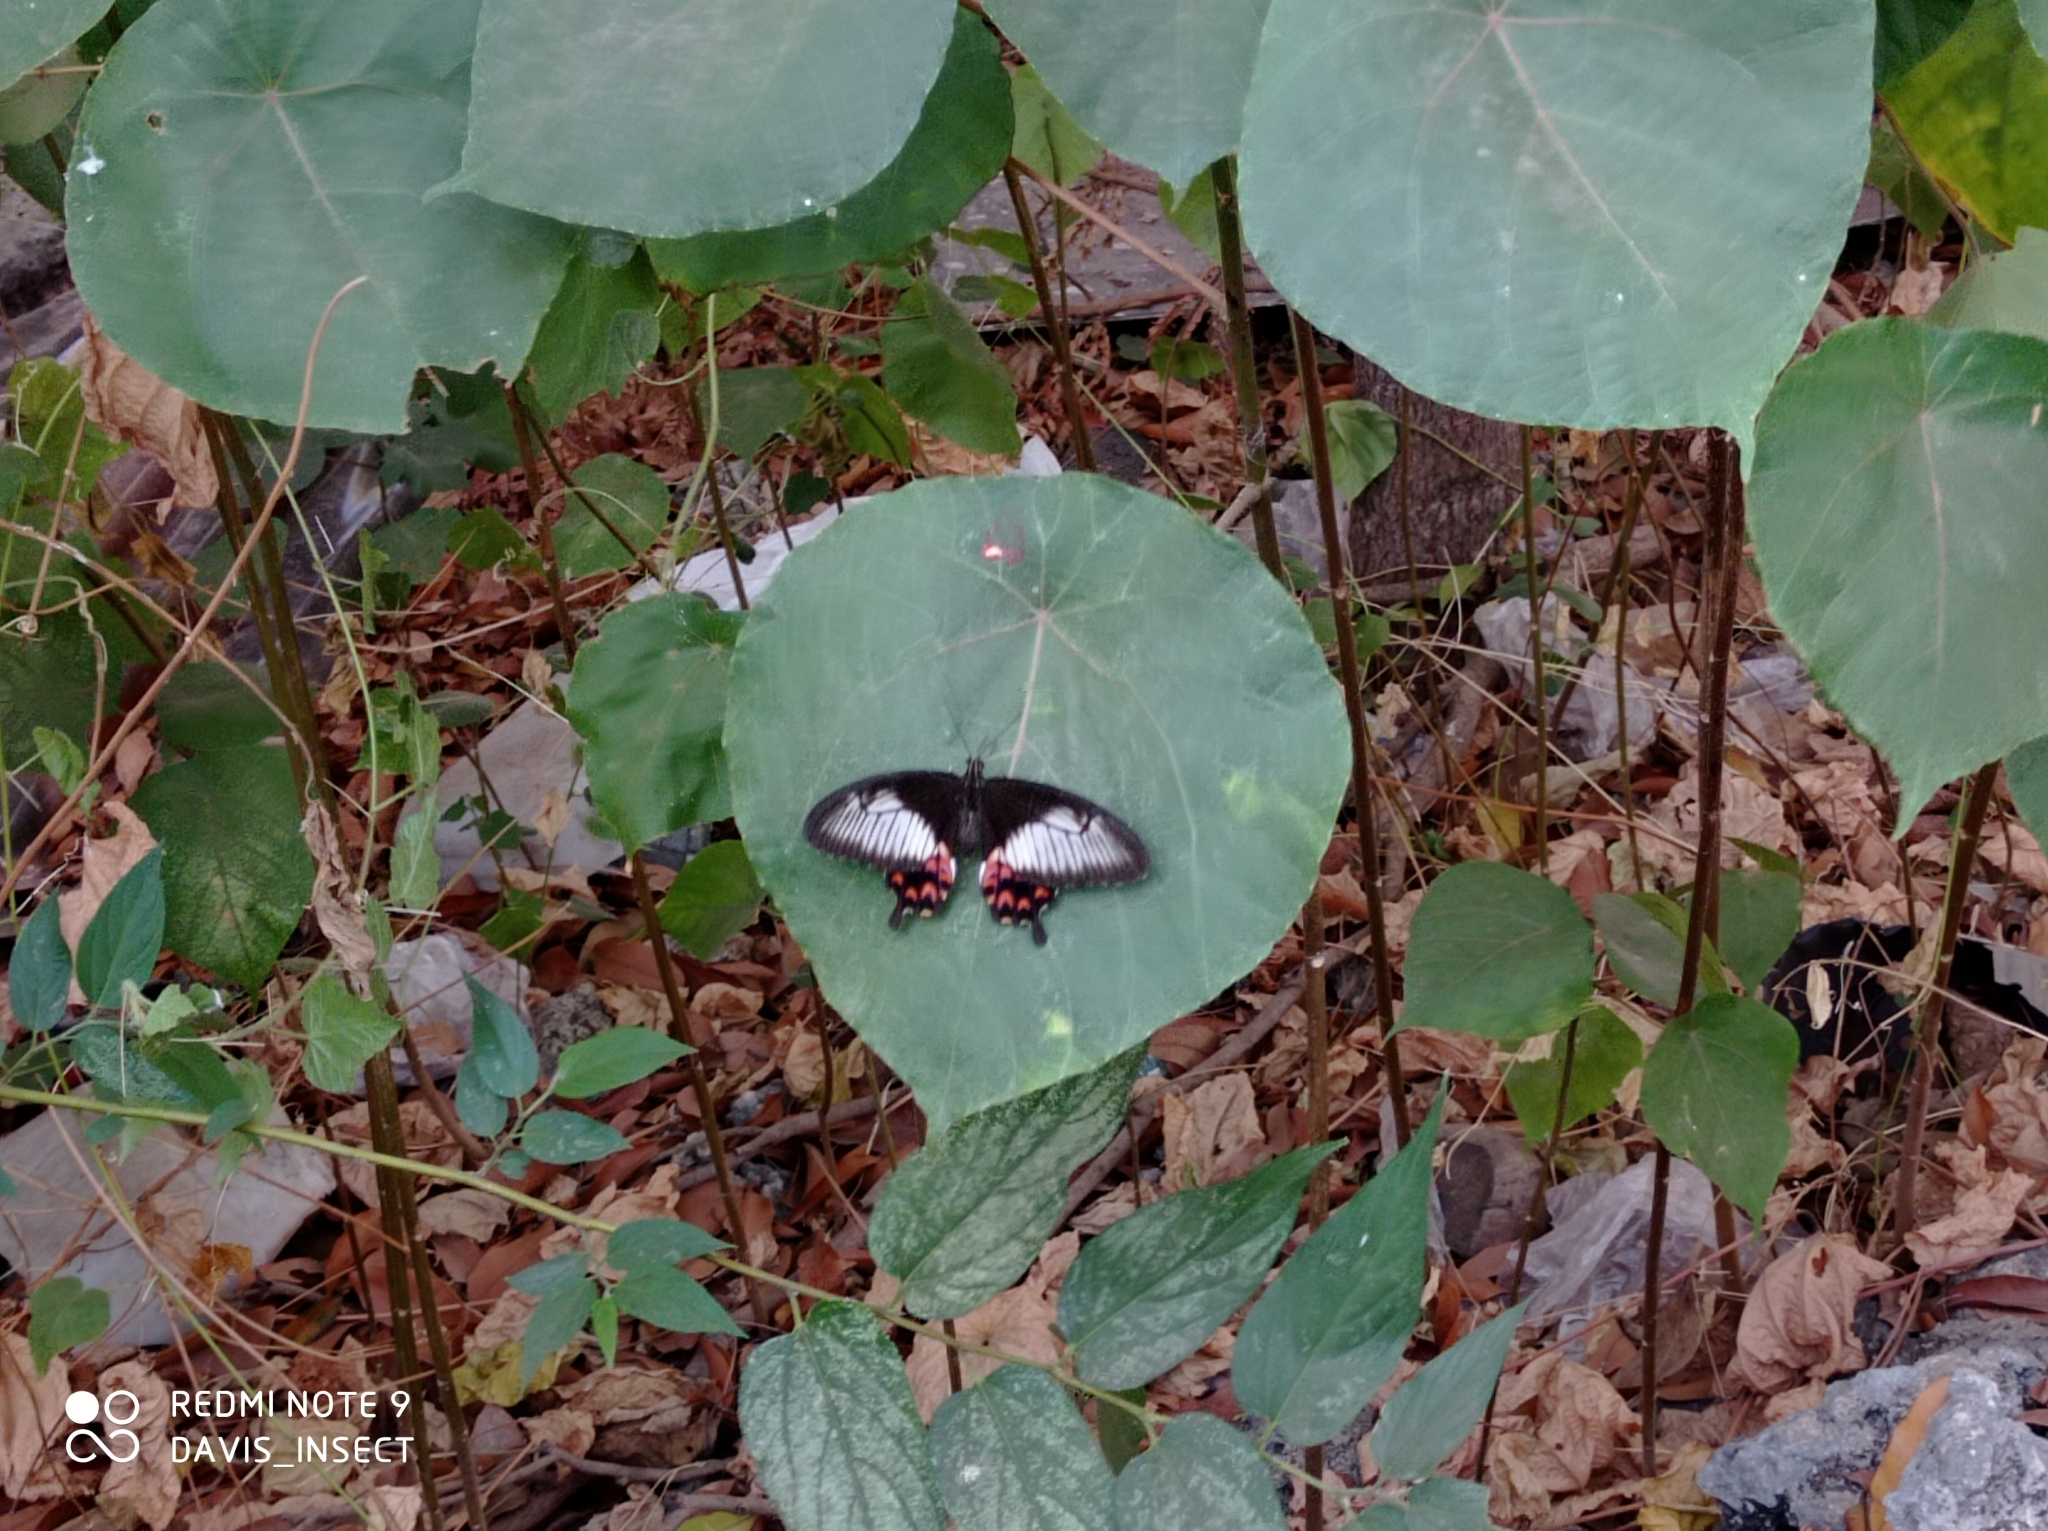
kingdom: Animalia
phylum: Arthropoda
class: Insecta
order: Lepidoptera
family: Papilionidae
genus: Papilio
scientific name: Papilio janaka
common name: Himalayan tailed redbreast
